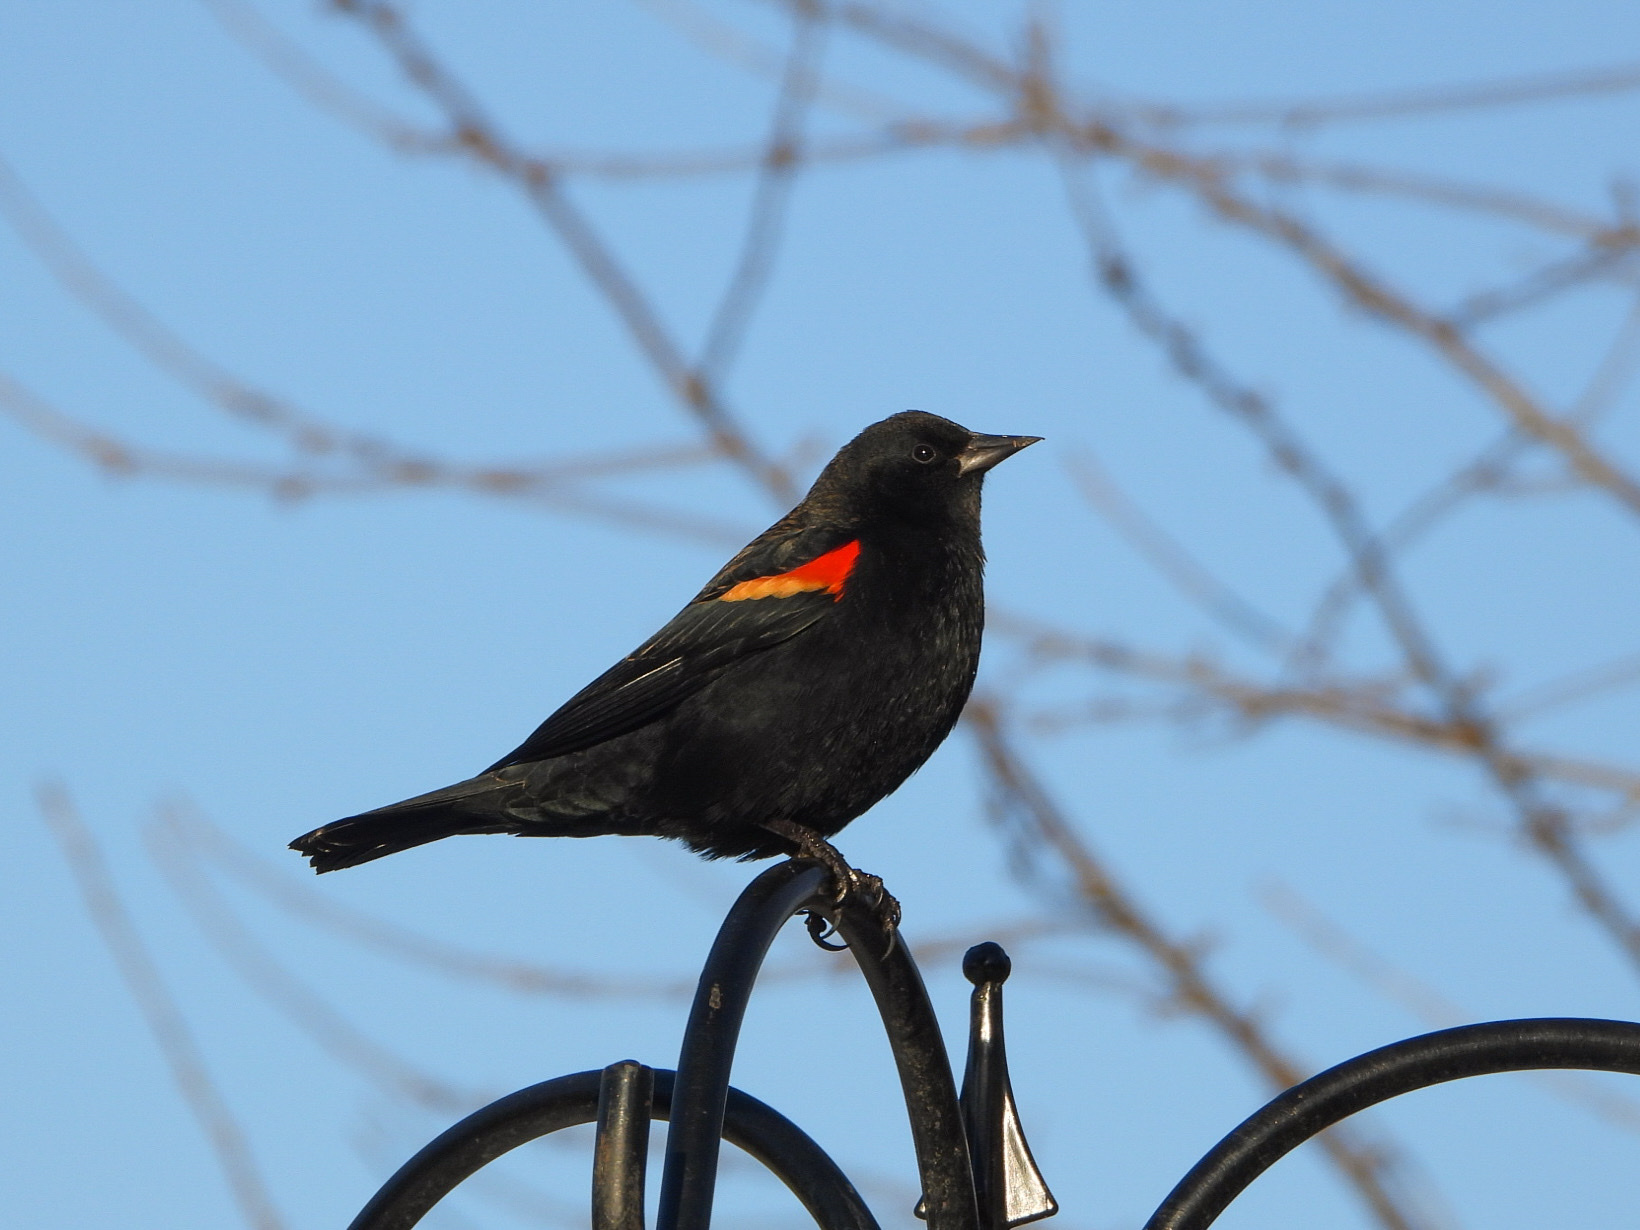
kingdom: Animalia
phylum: Chordata
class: Aves
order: Passeriformes
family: Icteridae
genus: Agelaius
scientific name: Agelaius phoeniceus
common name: Red-winged blackbird
